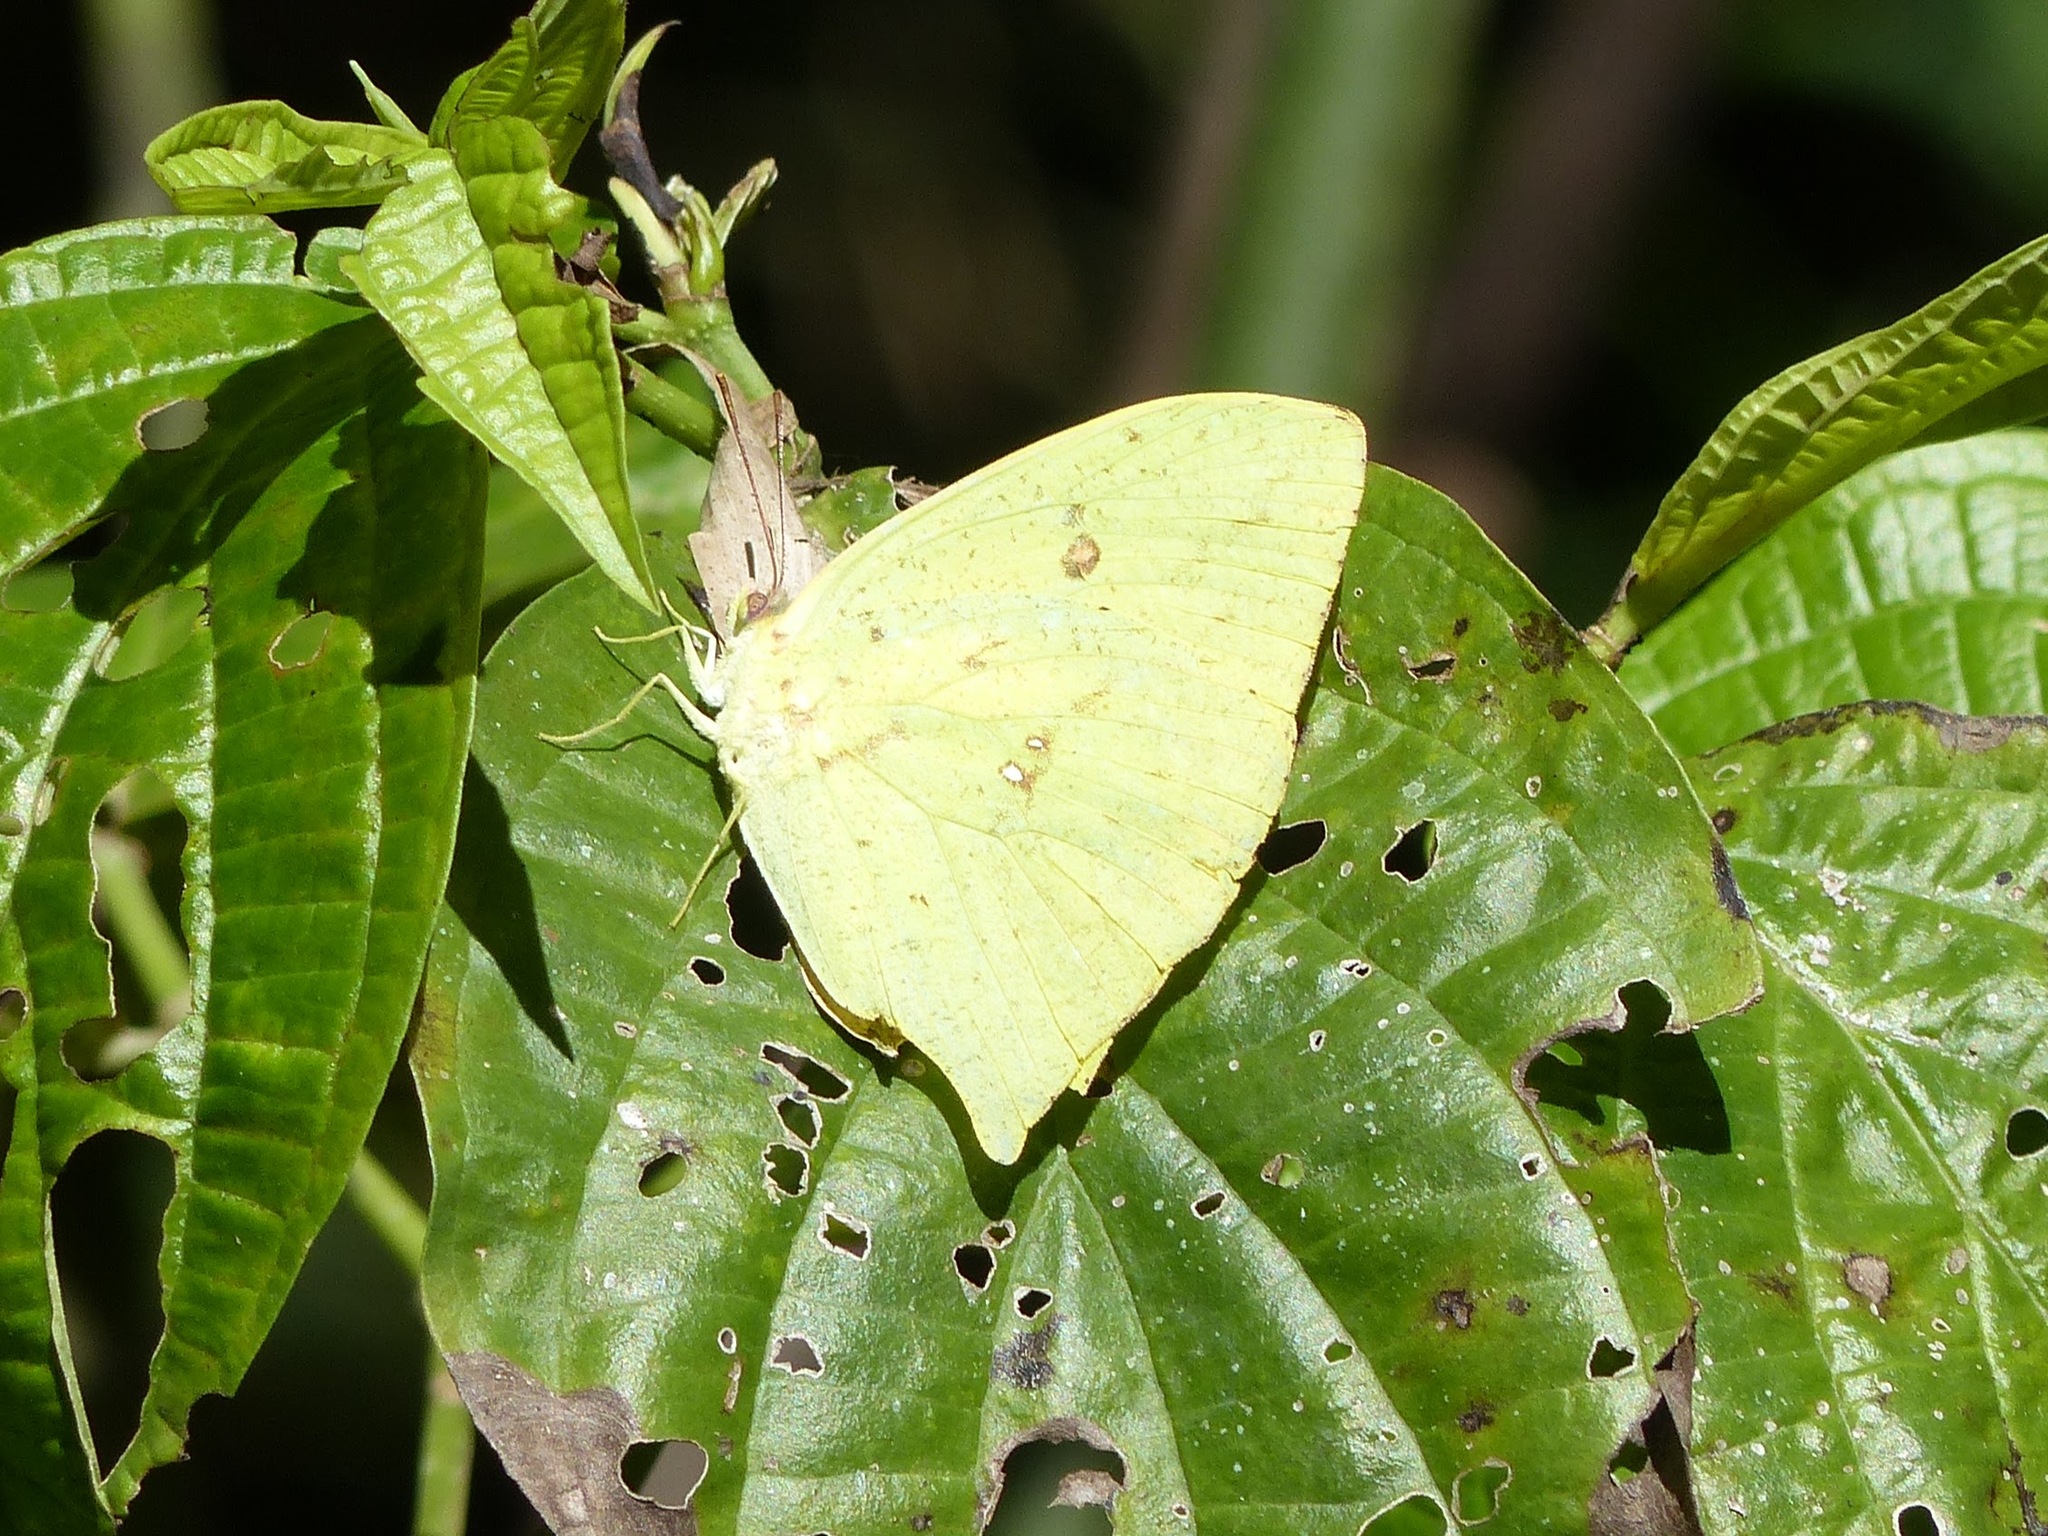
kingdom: Animalia
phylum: Arthropoda
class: Insecta
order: Lepidoptera
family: Pieridae
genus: Phoebis
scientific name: Phoebis neocypris
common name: Tailed sulphur
